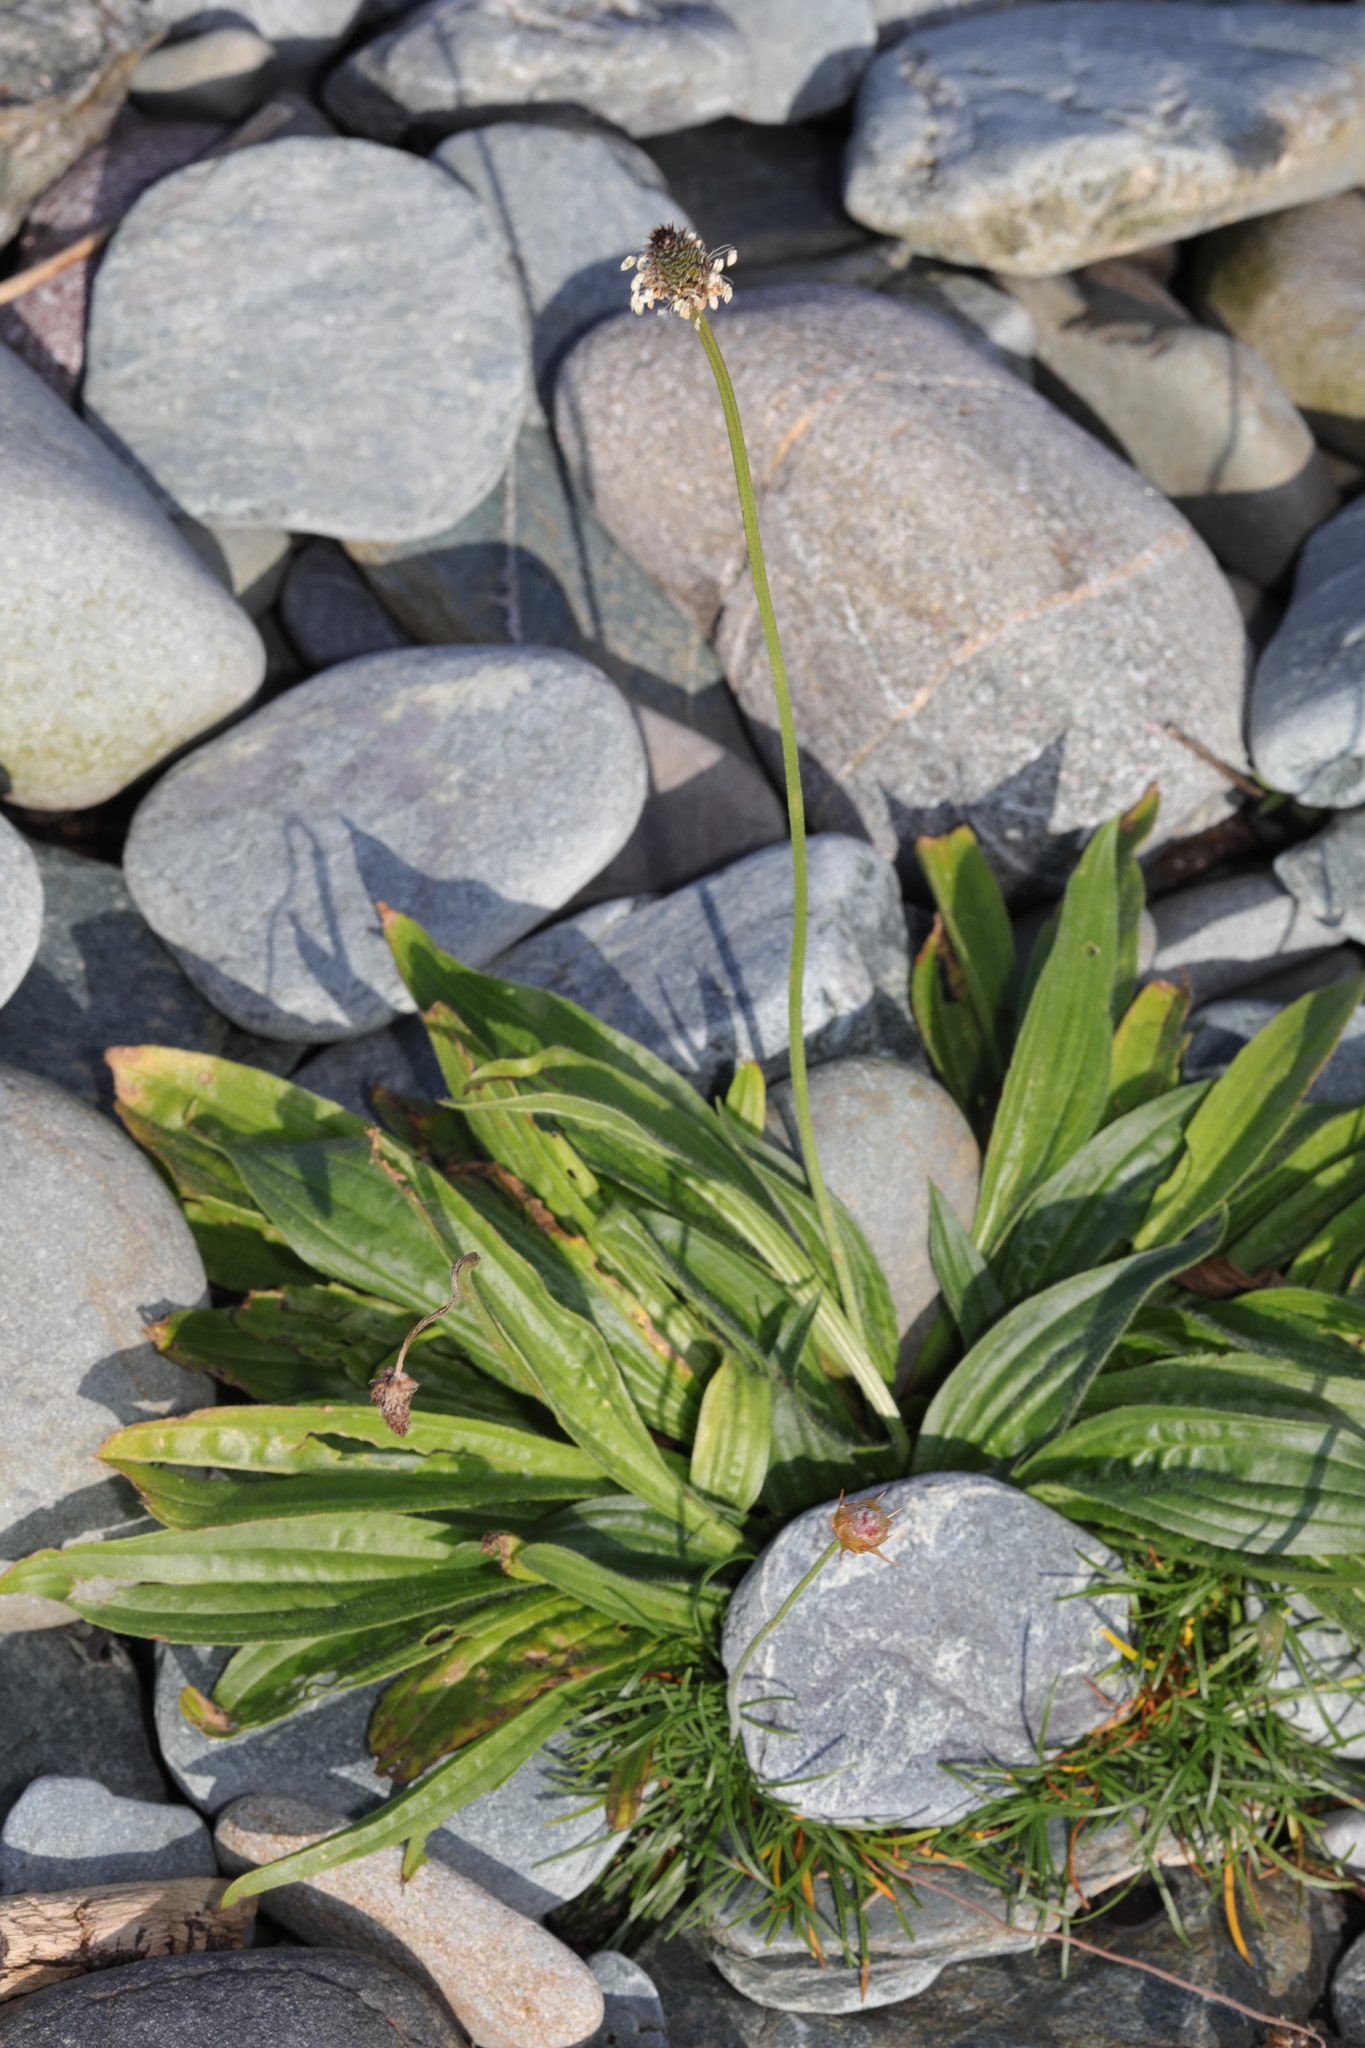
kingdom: Plantae
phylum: Tracheophyta
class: Magnoliopsida
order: Lamiales
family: Plantaginaceae
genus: Plantago
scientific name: Plantago lanceolata
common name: Ribwort plantain
